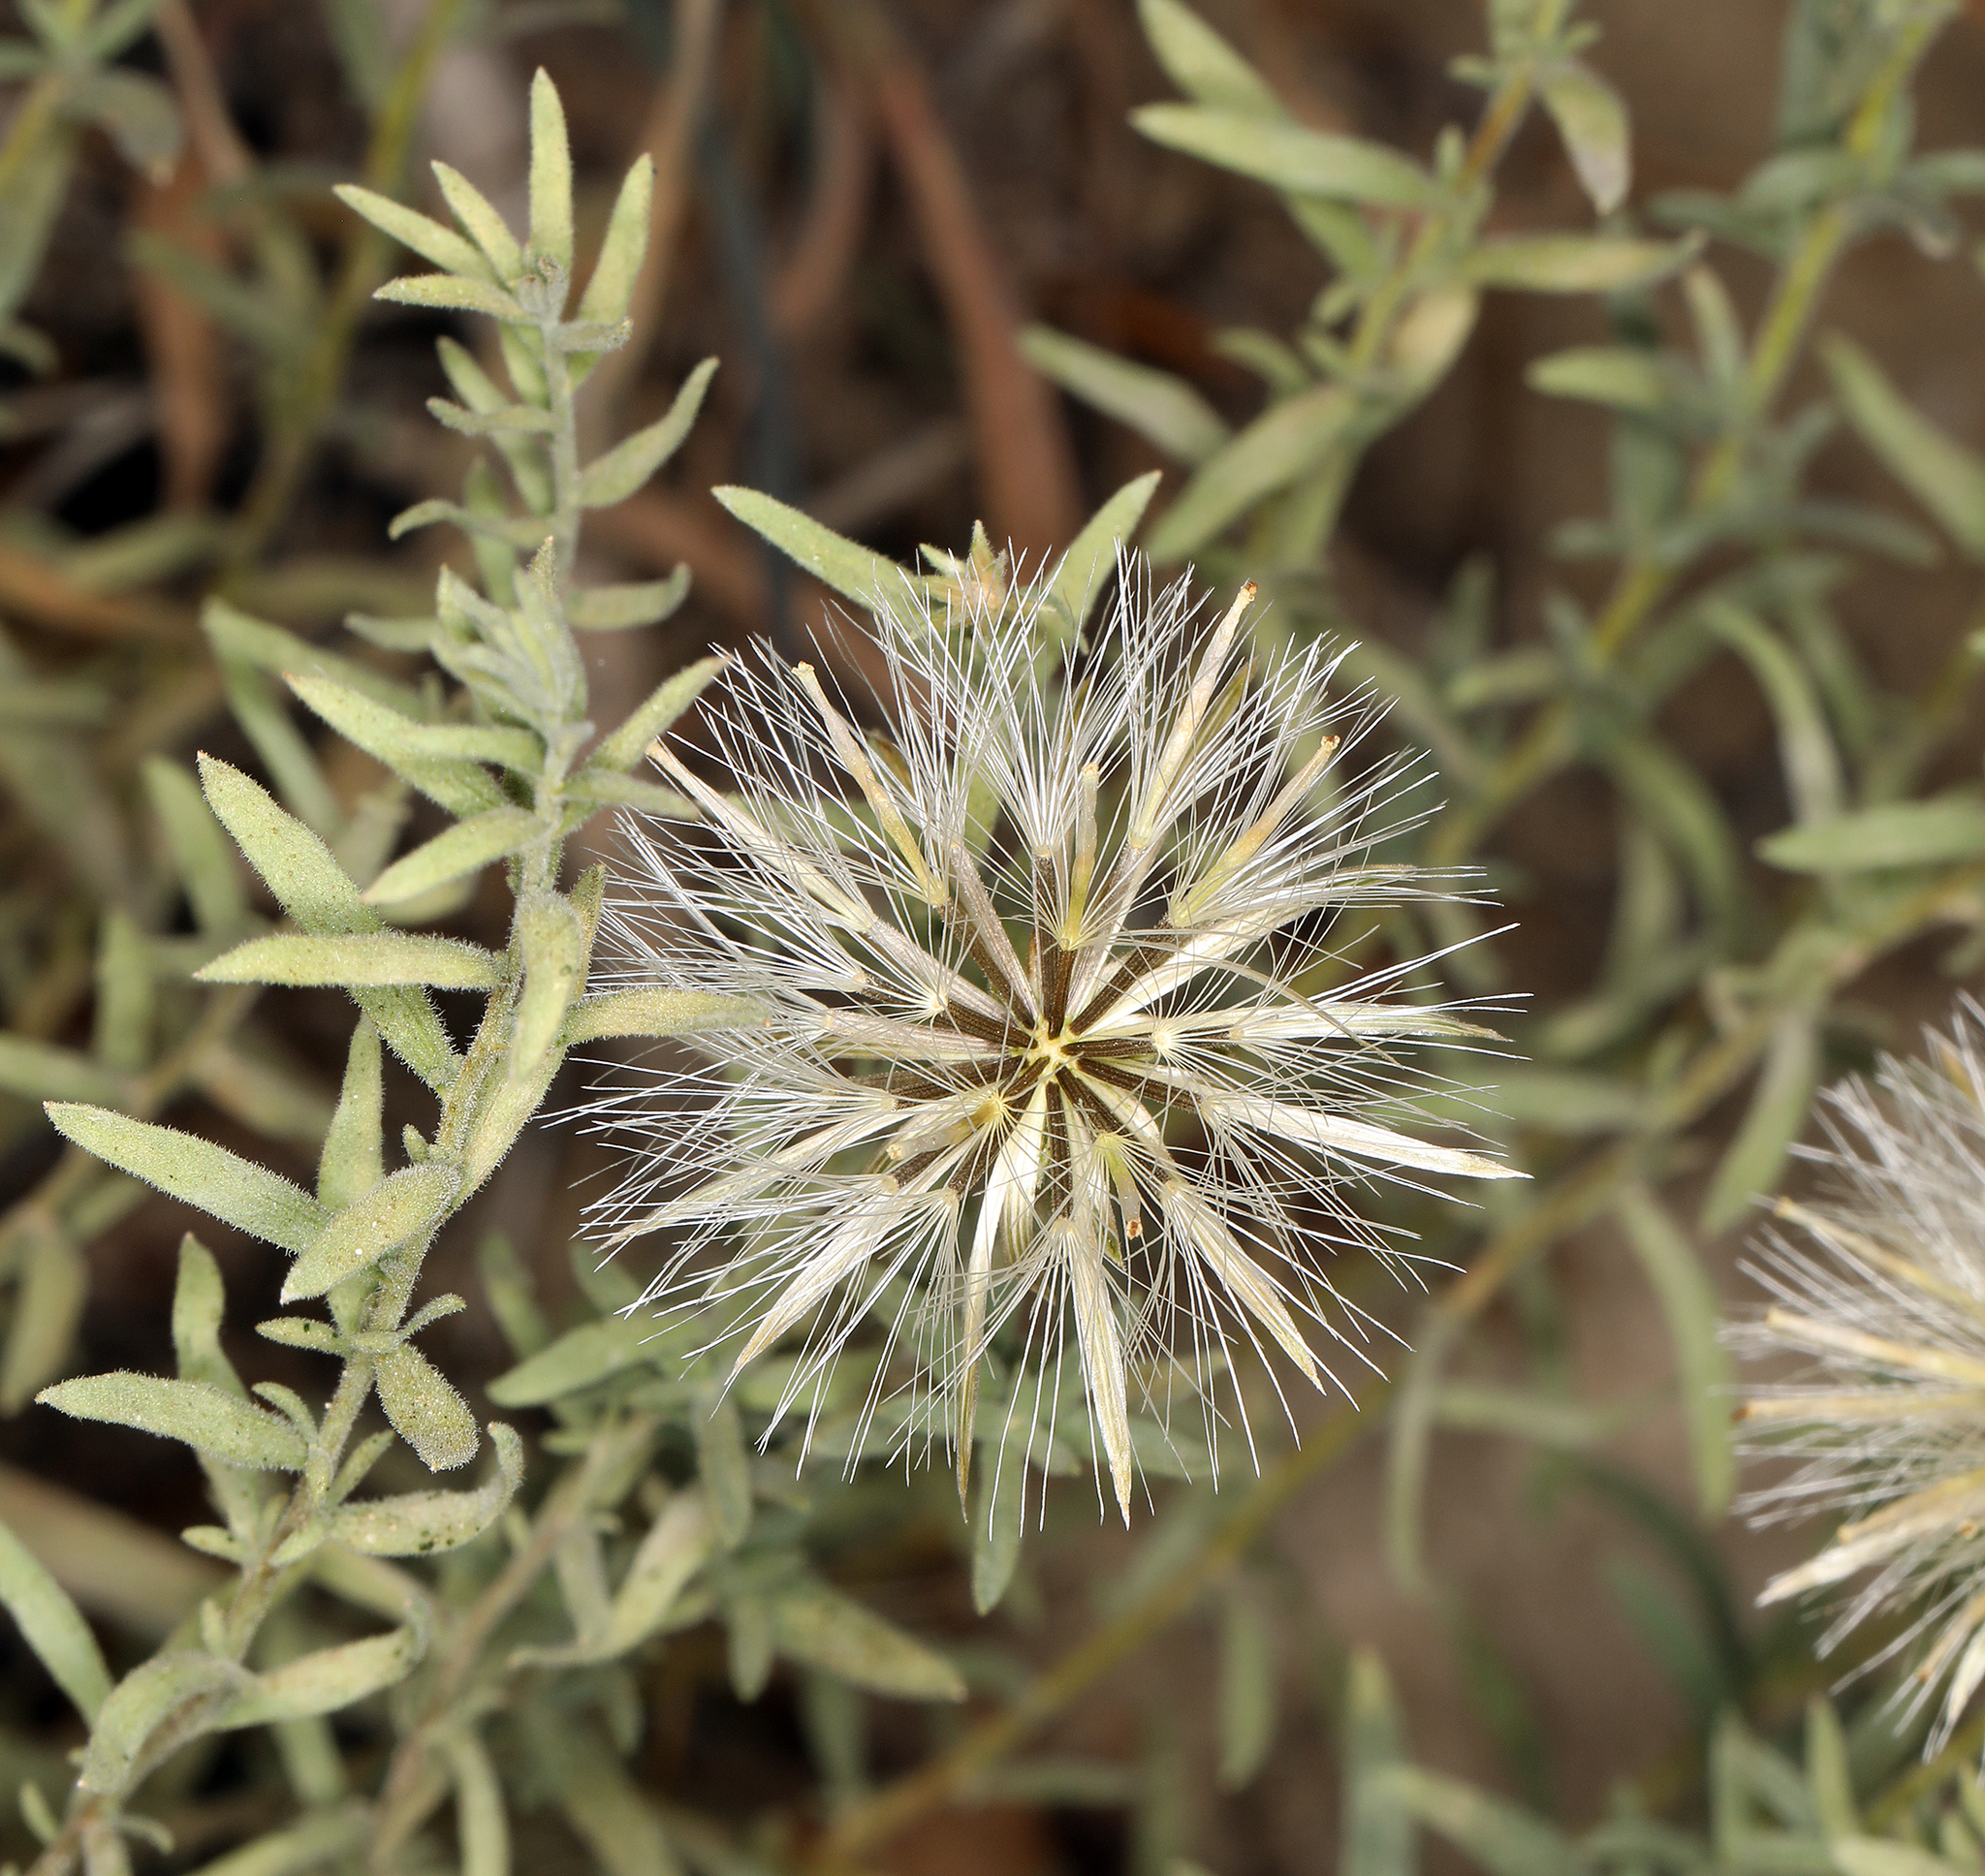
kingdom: Plantae
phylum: Tracheophyta
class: Magnoliopsida
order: Asterales
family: Asteraceae
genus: Brickellia
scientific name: Brickellia oblongifolia
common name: Mojave brickellbush
